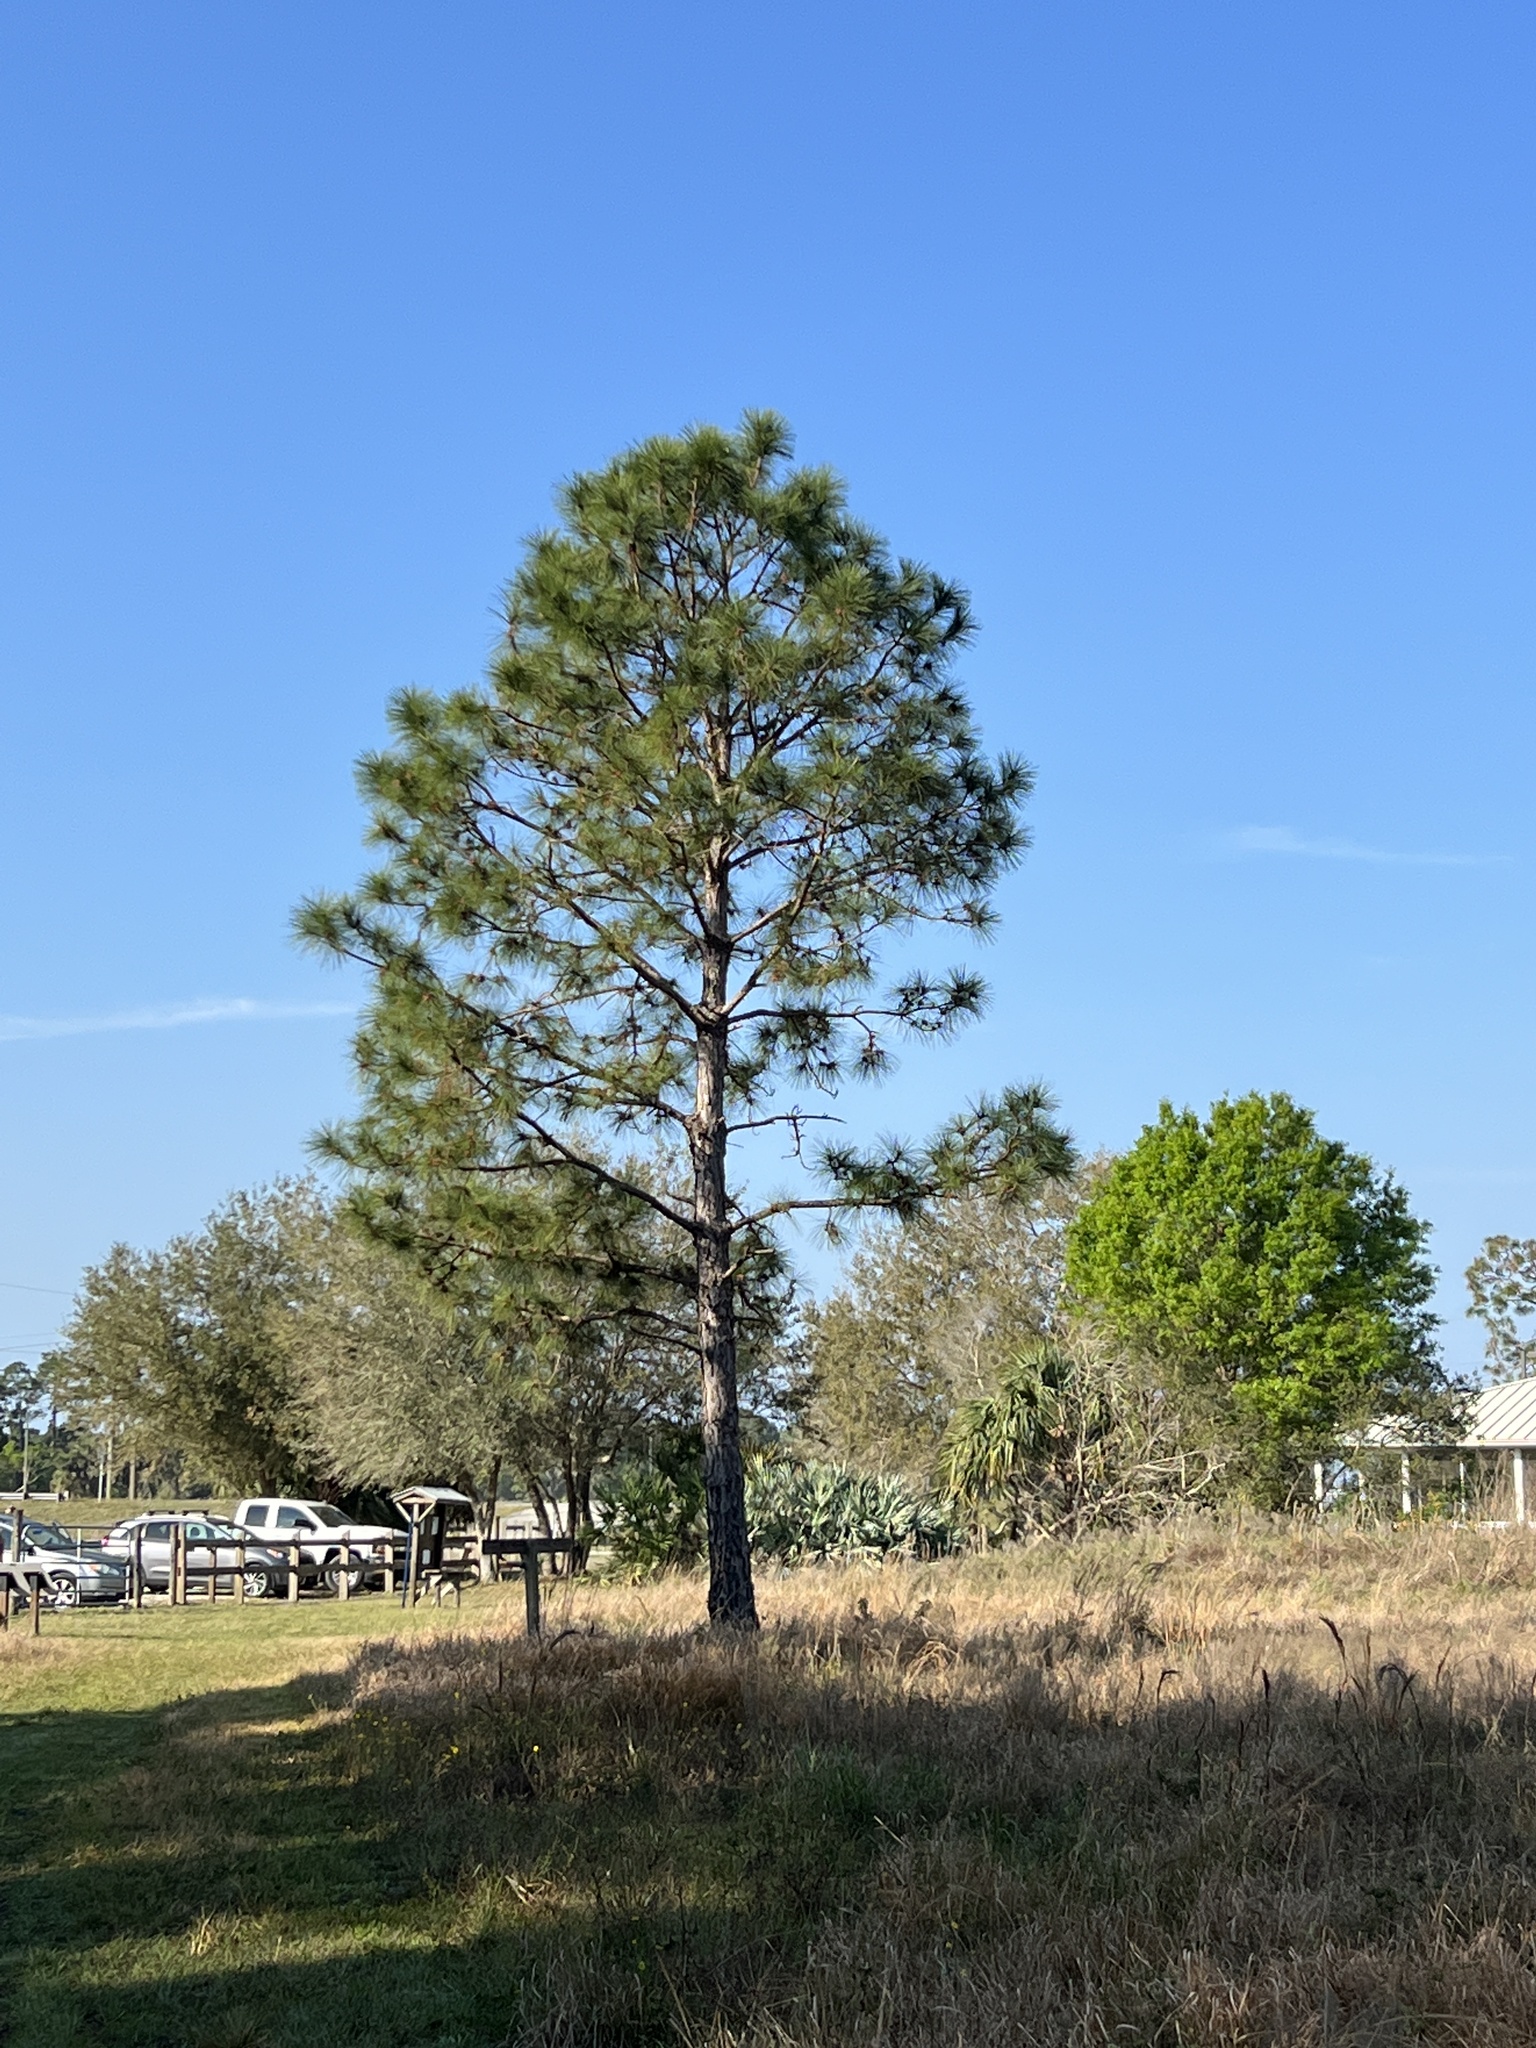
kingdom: Plantae
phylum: Tracheophyta
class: Pinopsida
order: Pinales
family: Pinaceae
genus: Pinus
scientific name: Pinus elliottii
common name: Slash pine
